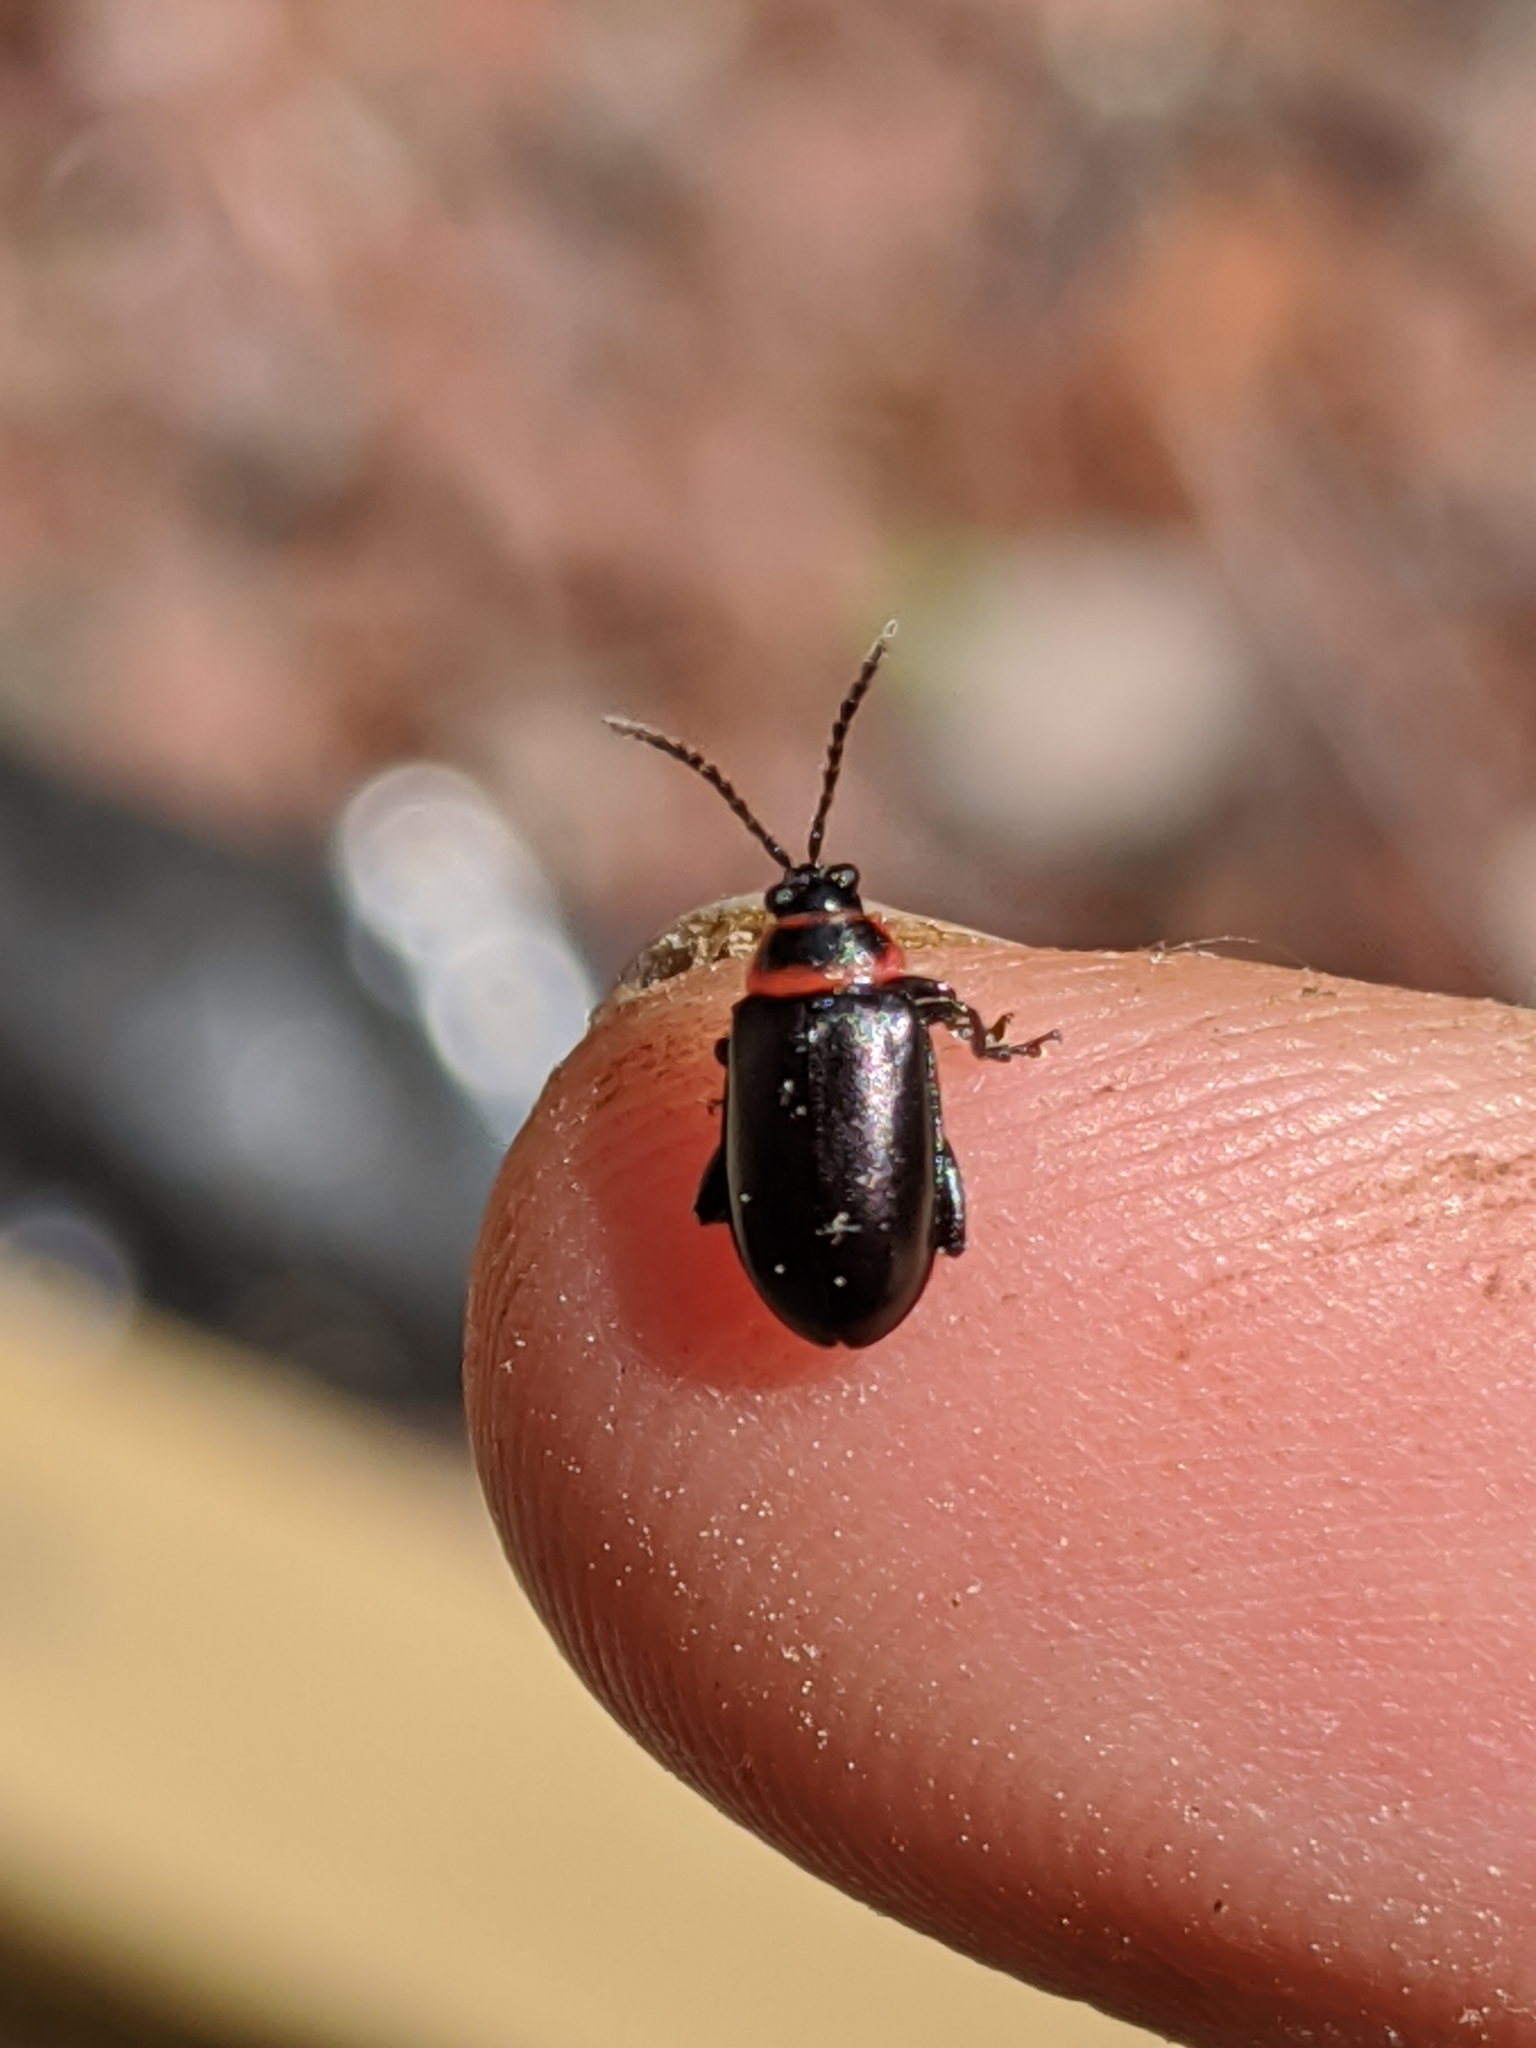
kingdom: Animalia
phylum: Arthropoda
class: Insecta
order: Coleoptera
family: Chrysomelidae
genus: Kuschelina
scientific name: Kuschelina vians
